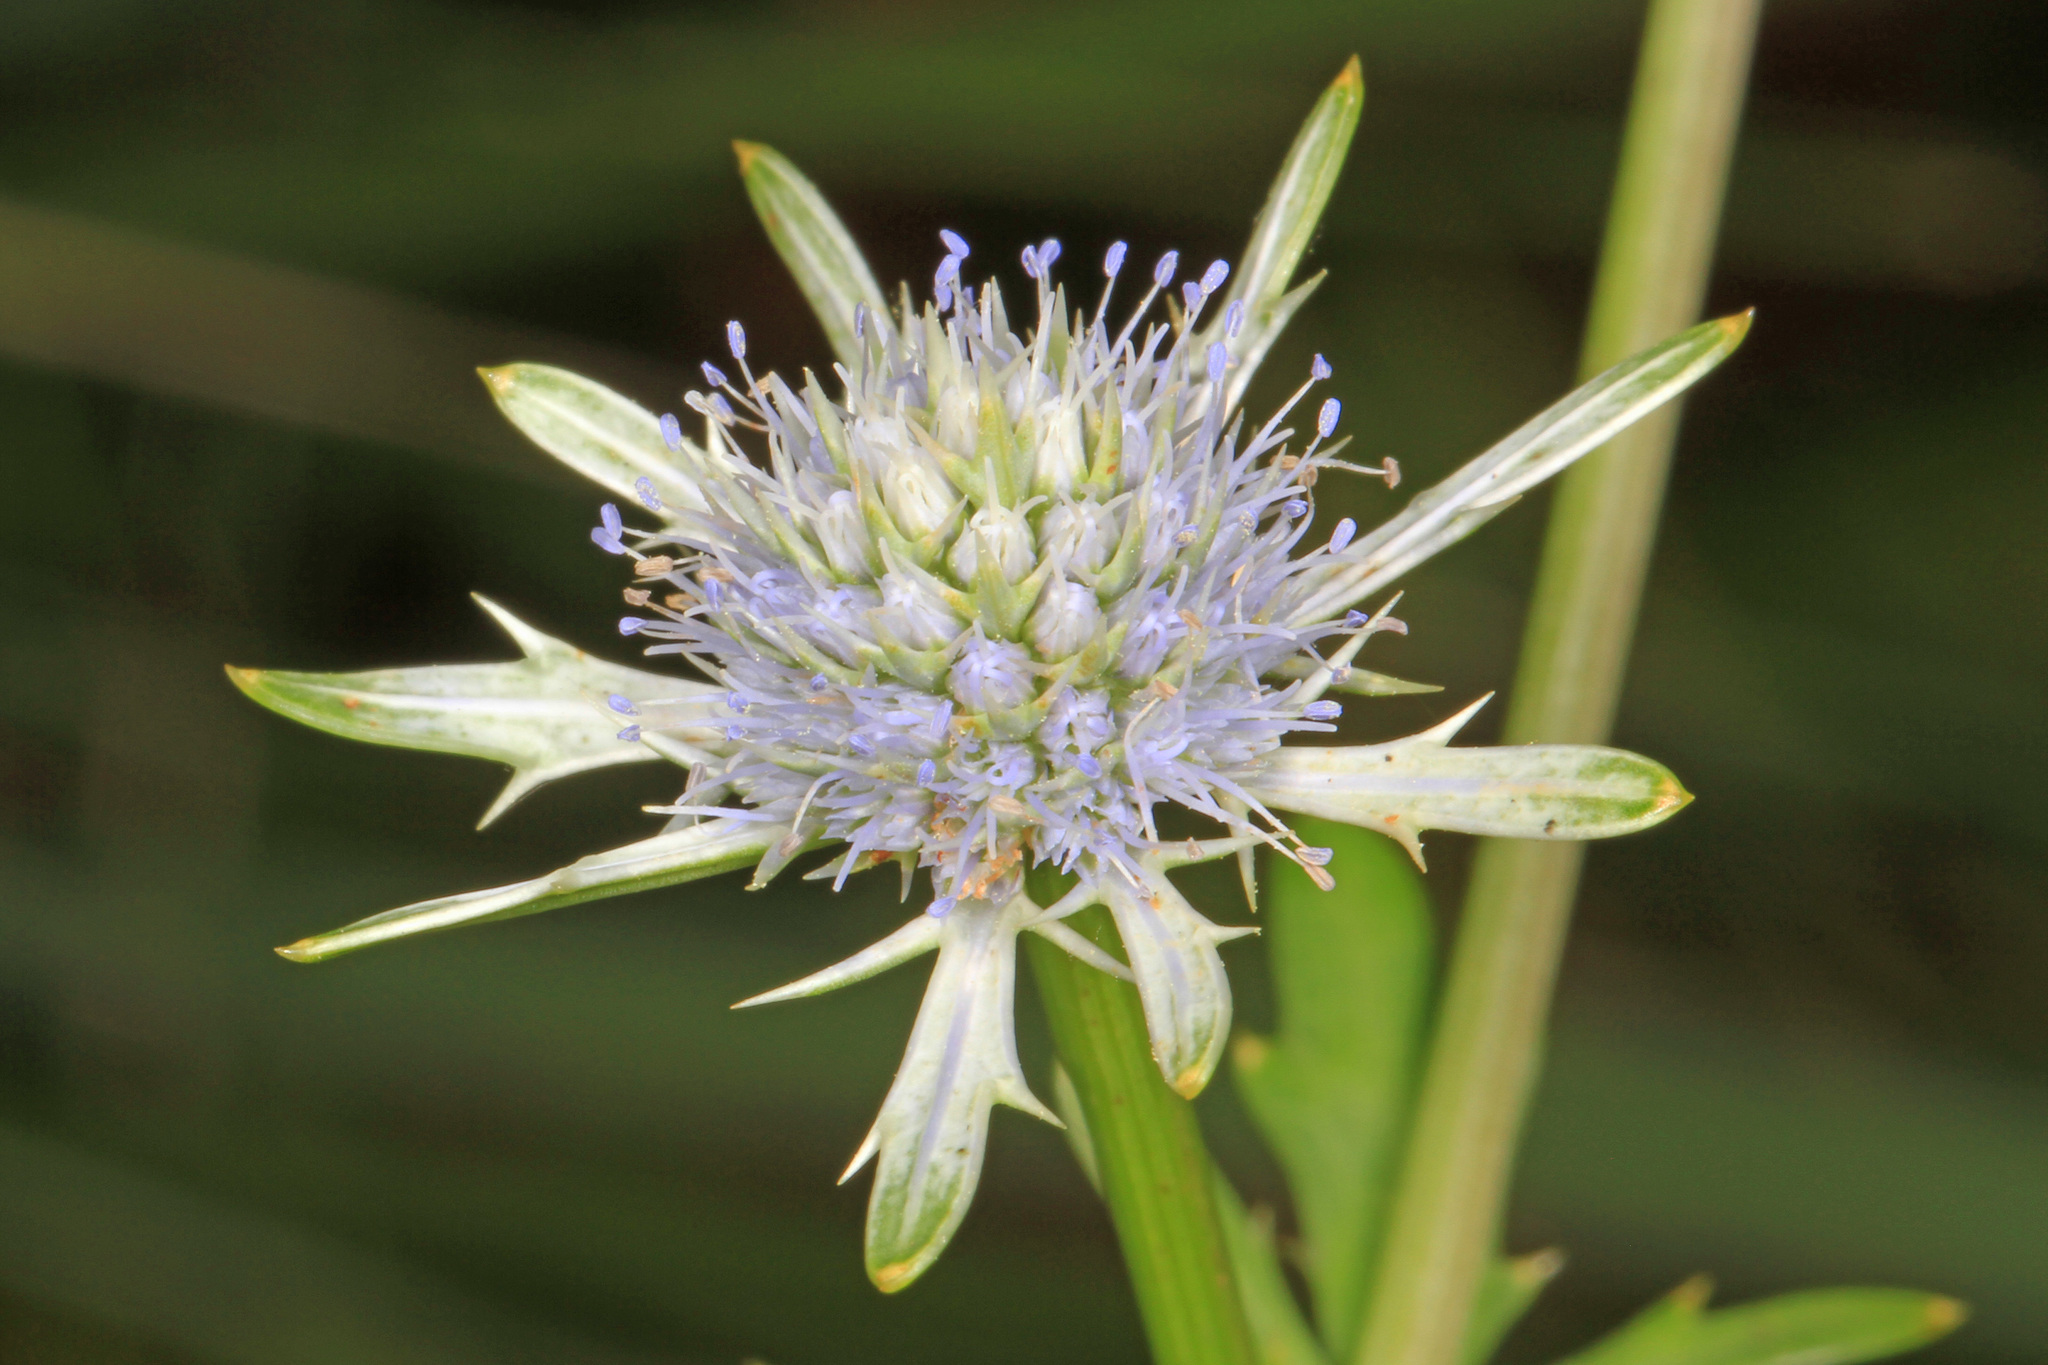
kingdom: Plantae
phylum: Tracheophyta
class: Magnoliopsida
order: Apiales
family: Apiaceae
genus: Eryngium
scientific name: Eryngium integrifolium
